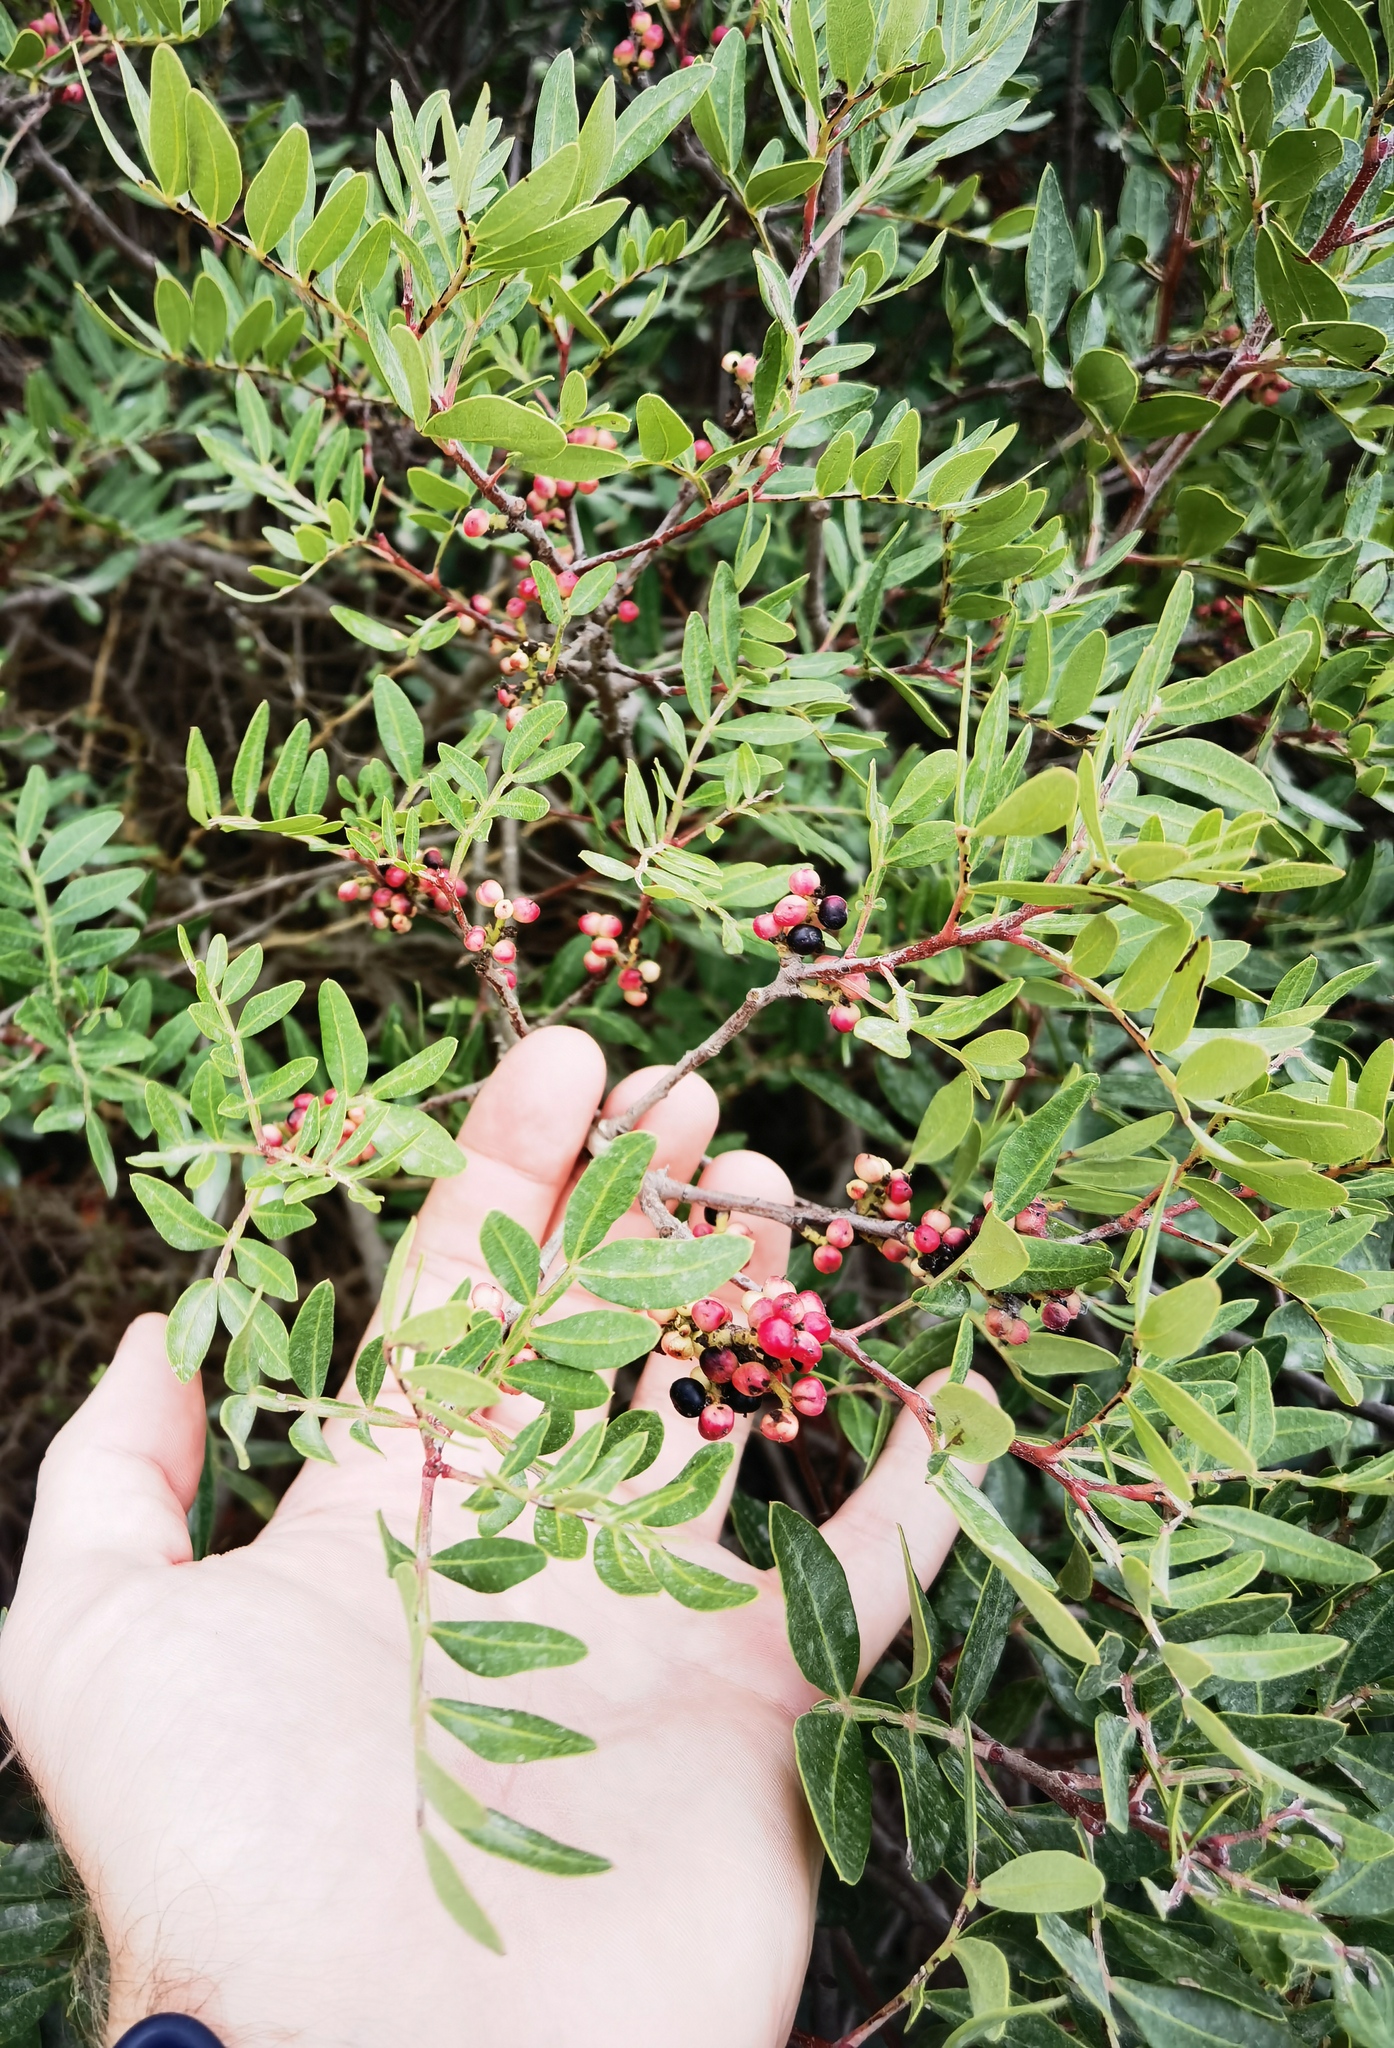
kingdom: Plantae
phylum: Tracheophyta
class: Magnoliopsida
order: Sapindales
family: Anacardiaceae
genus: Pistacia
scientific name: Pistacia lentiscus
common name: Lentisk
